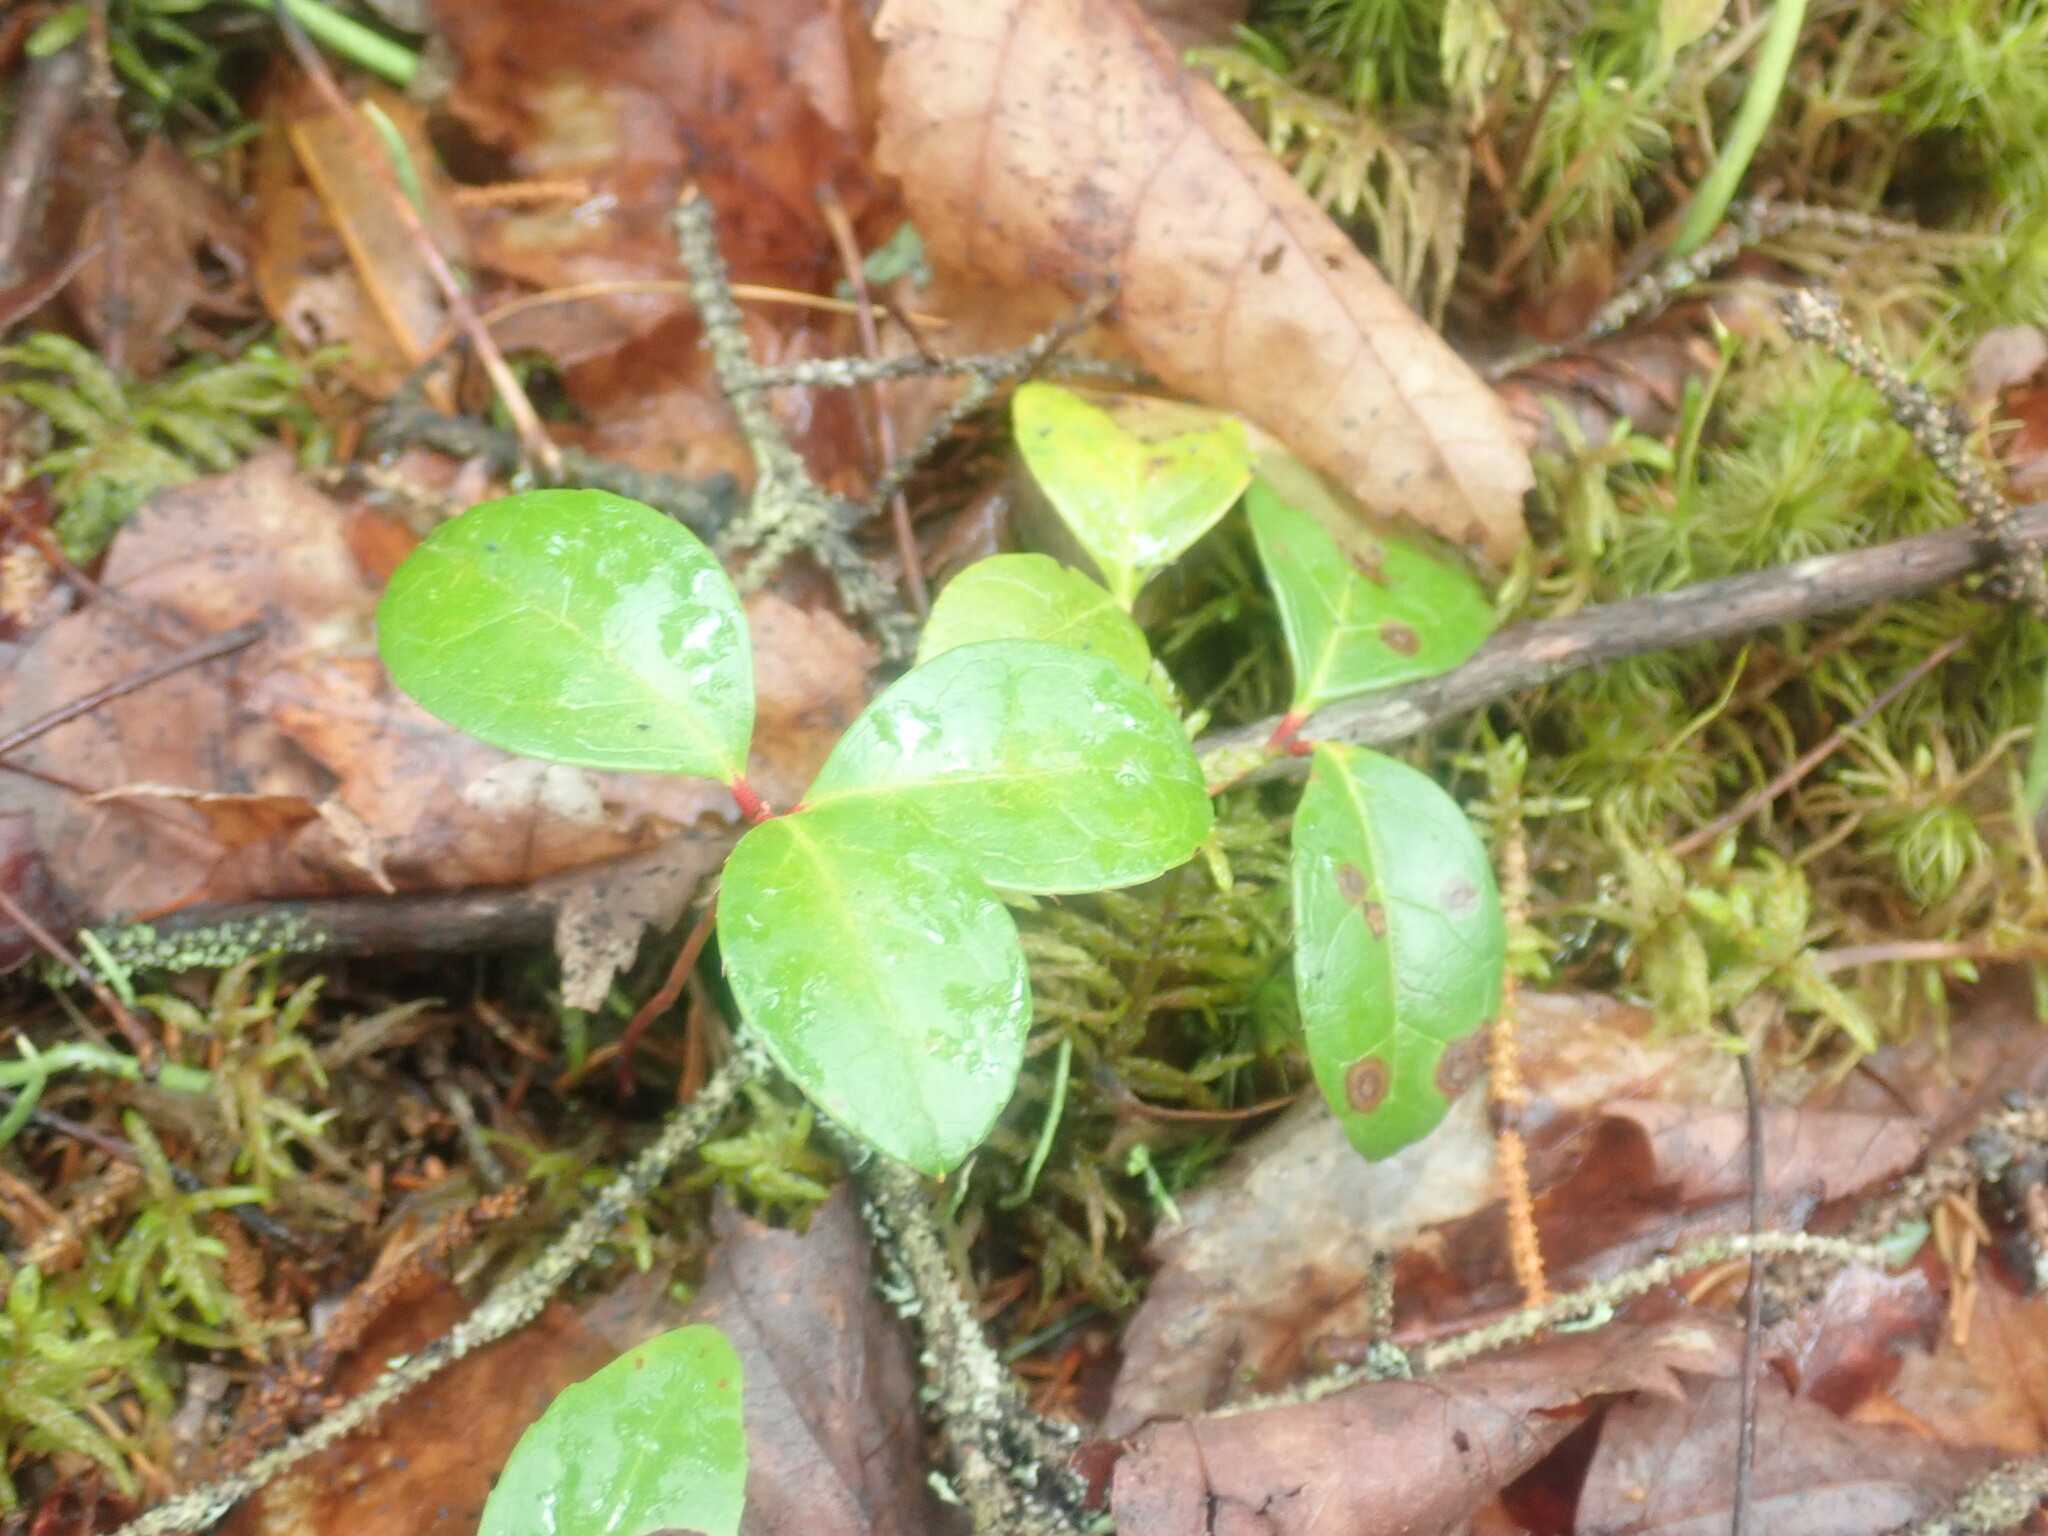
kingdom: Plantae
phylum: Tracheophyta
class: Magnoliopsida
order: Ericales
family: Ericaceae
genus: Gaultheria
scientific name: Gaultheria procumbens
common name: Checkerberry
